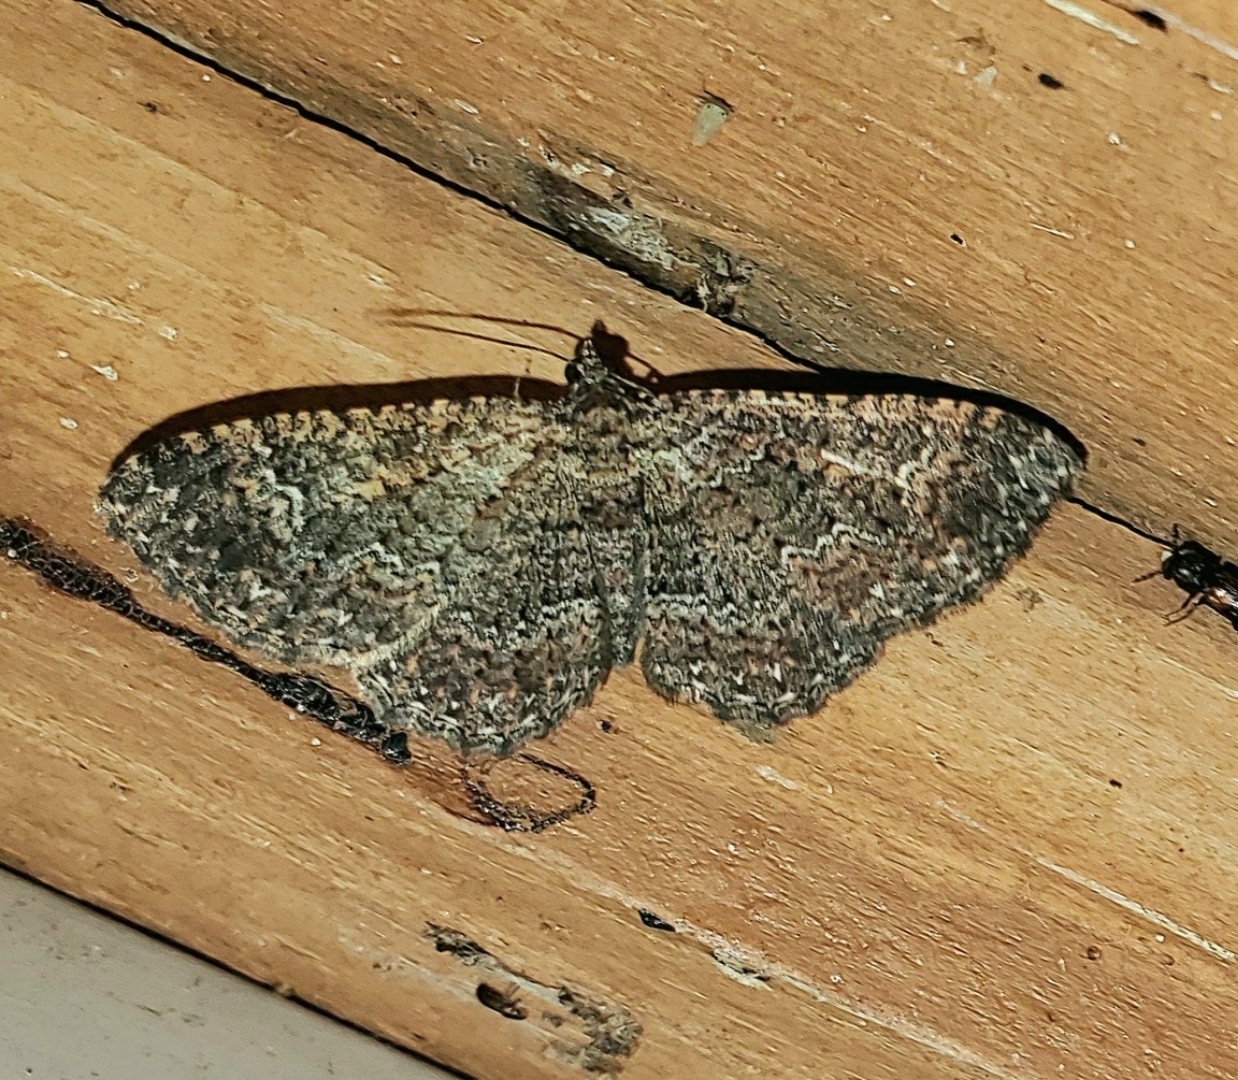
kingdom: Animalia
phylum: Arthropoda
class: Insecta
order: Lepidoptera
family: Geometridae
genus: Disclisioprocta
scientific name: Disclisioprocta stellata
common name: Somber carpet
